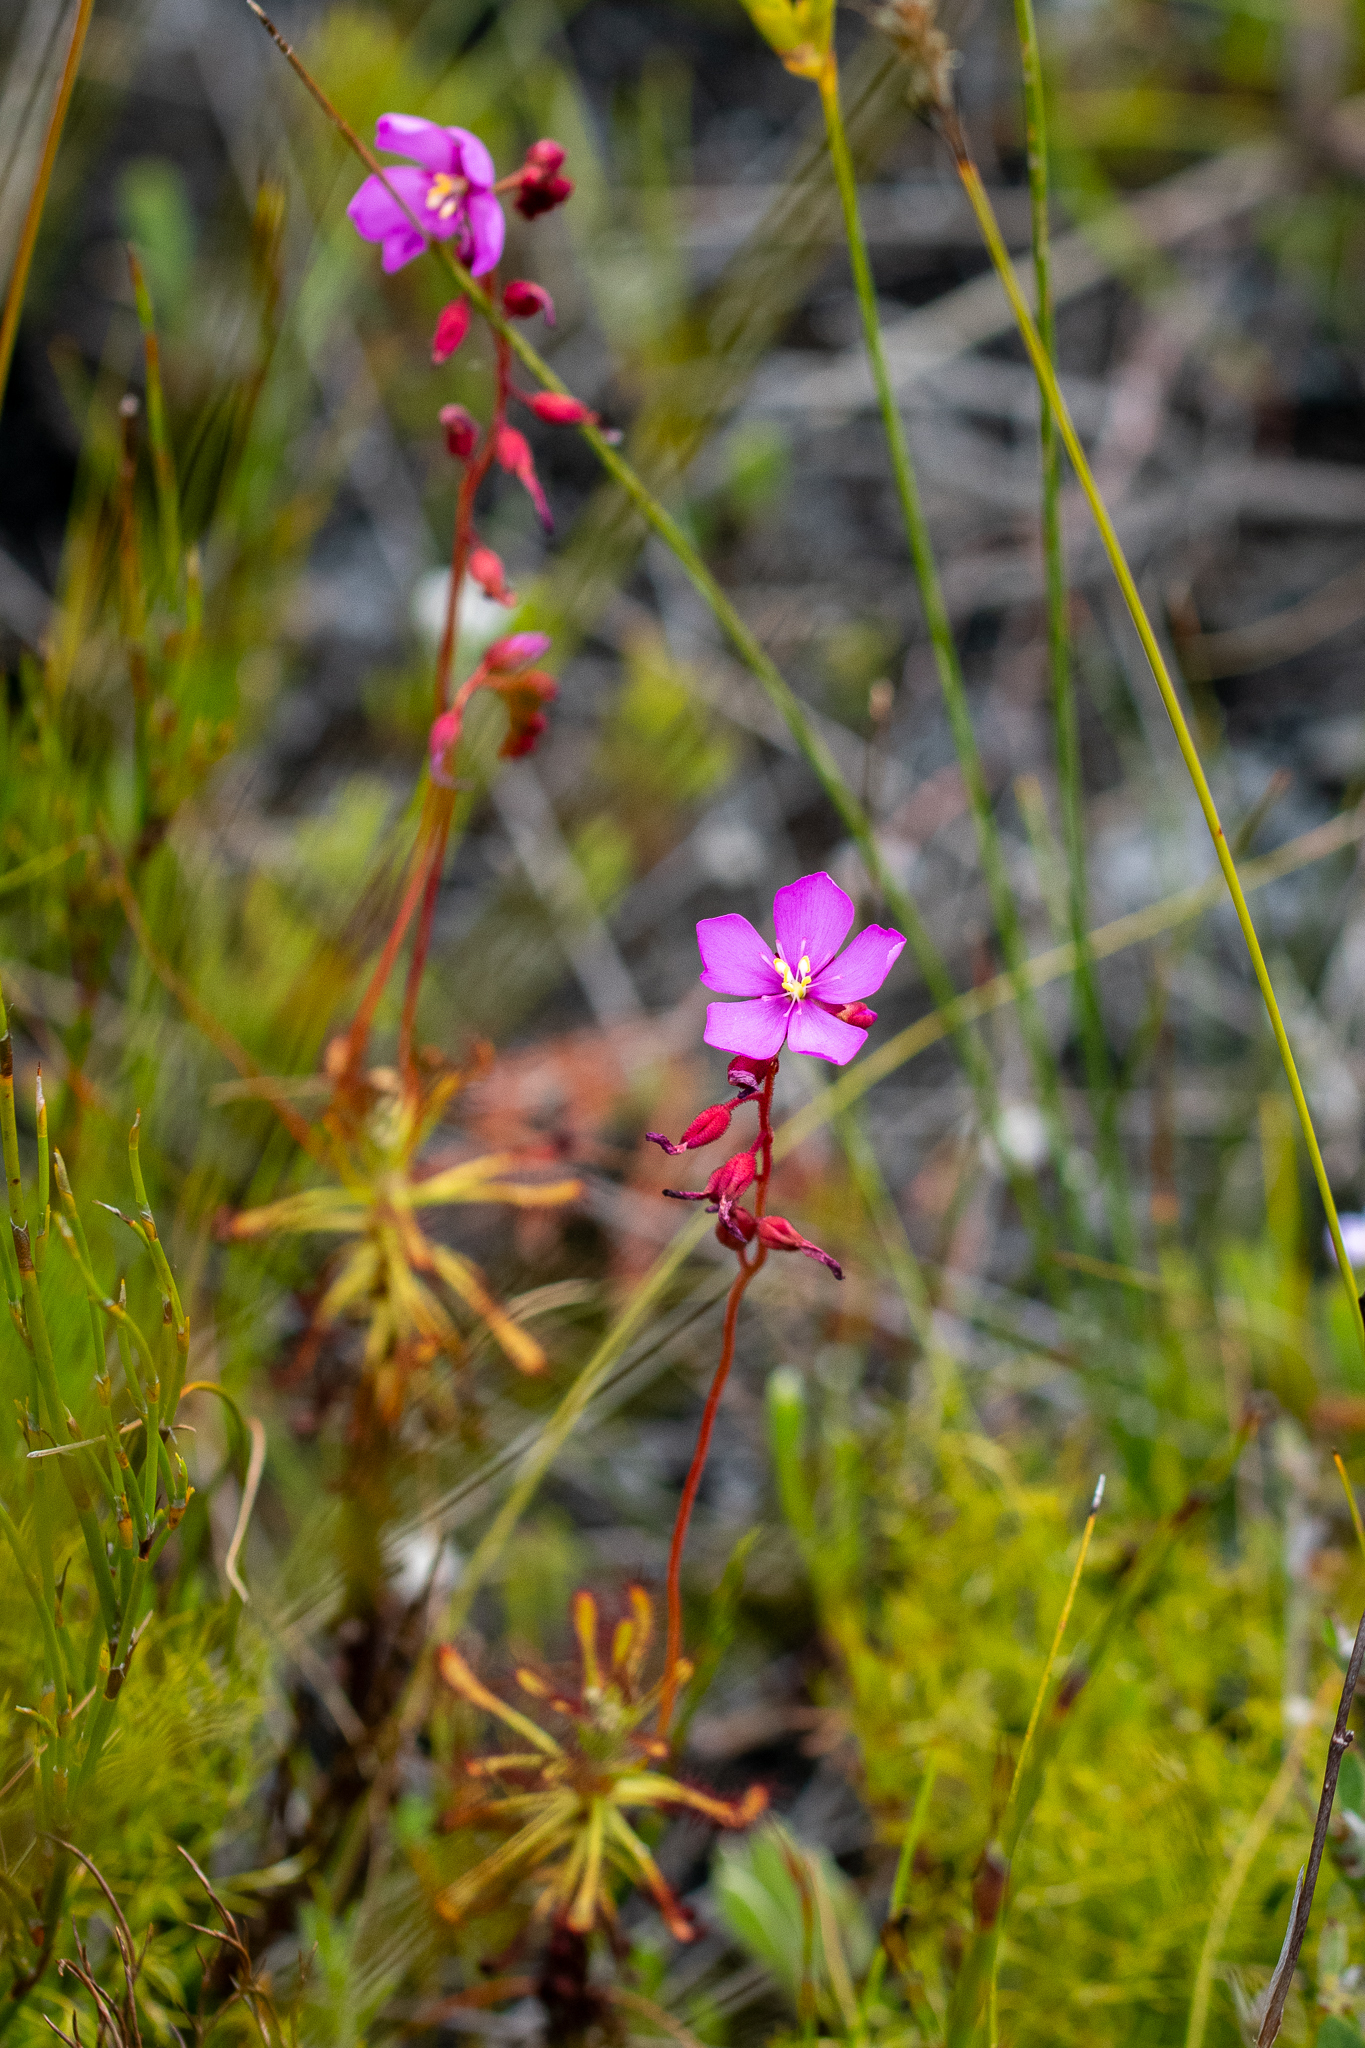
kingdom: Plantae
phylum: Tracheophyta
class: Magnoliopsida
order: Caryophyllales
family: Droseraceae
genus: Drosera
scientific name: Drosera glabripes
